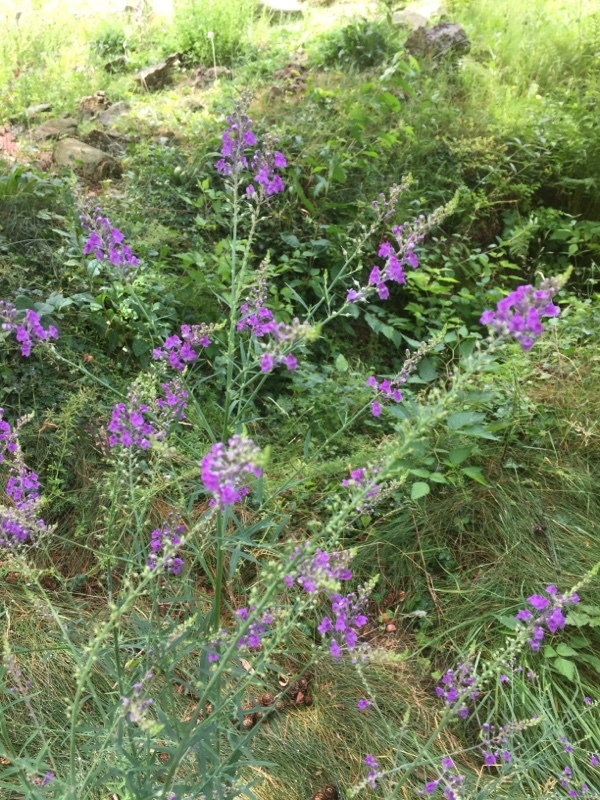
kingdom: Plantae
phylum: Tracheophyta
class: Magnoliopsida
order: Lamiales
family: Plantaginaceae
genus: Linaria
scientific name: Linaria purpurea
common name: Purple toadflax
